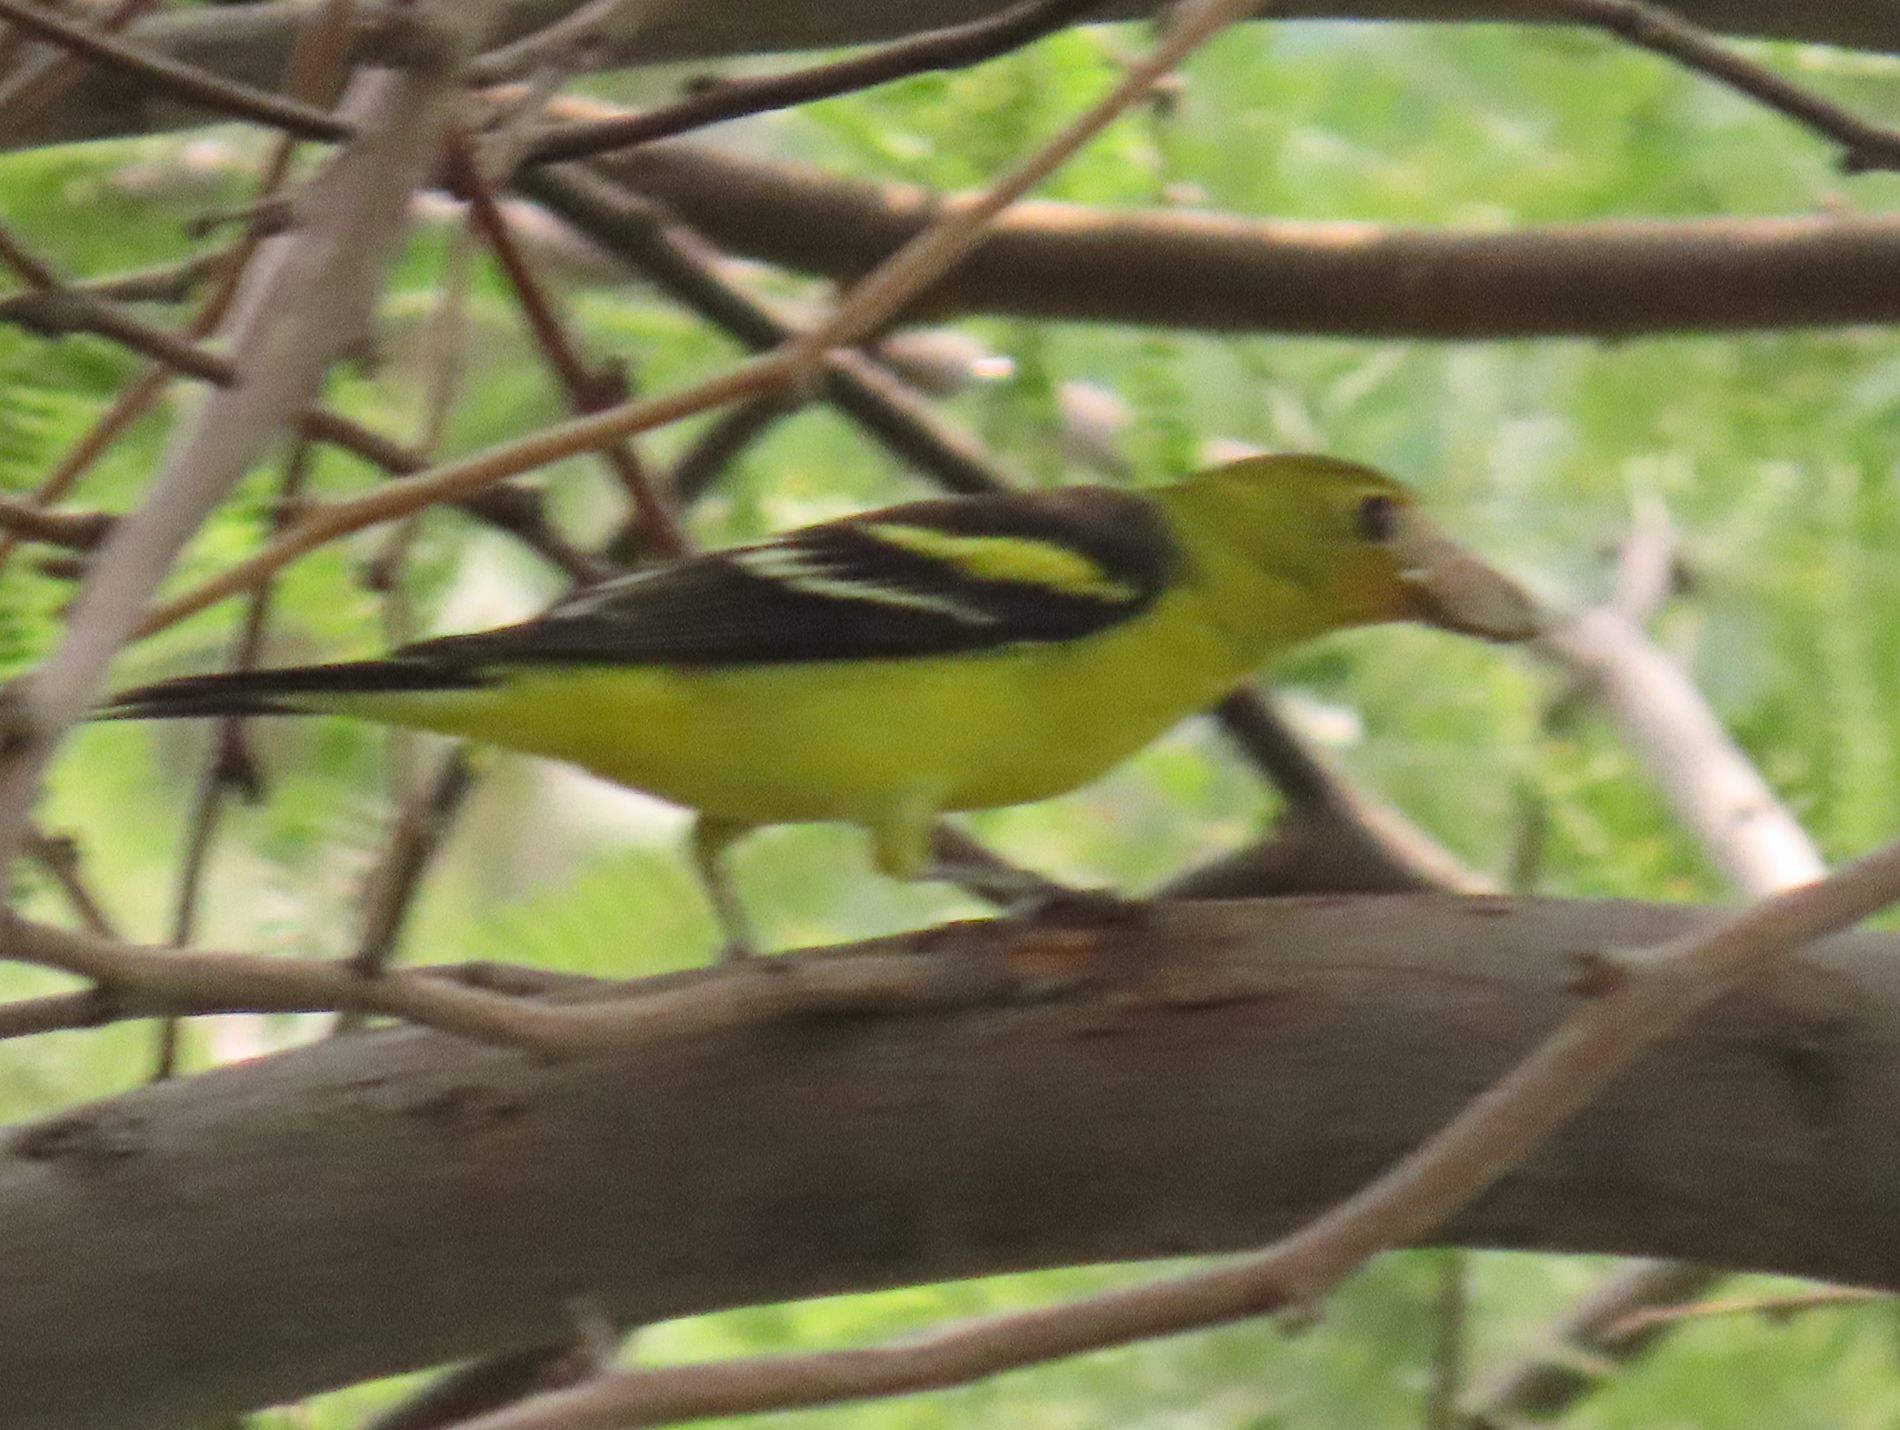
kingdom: Animalia
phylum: Chordata
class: Aves
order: Passeriformes
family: Cardinalidae
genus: Piranga
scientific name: Piranga ludoviciana
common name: Western tanager
